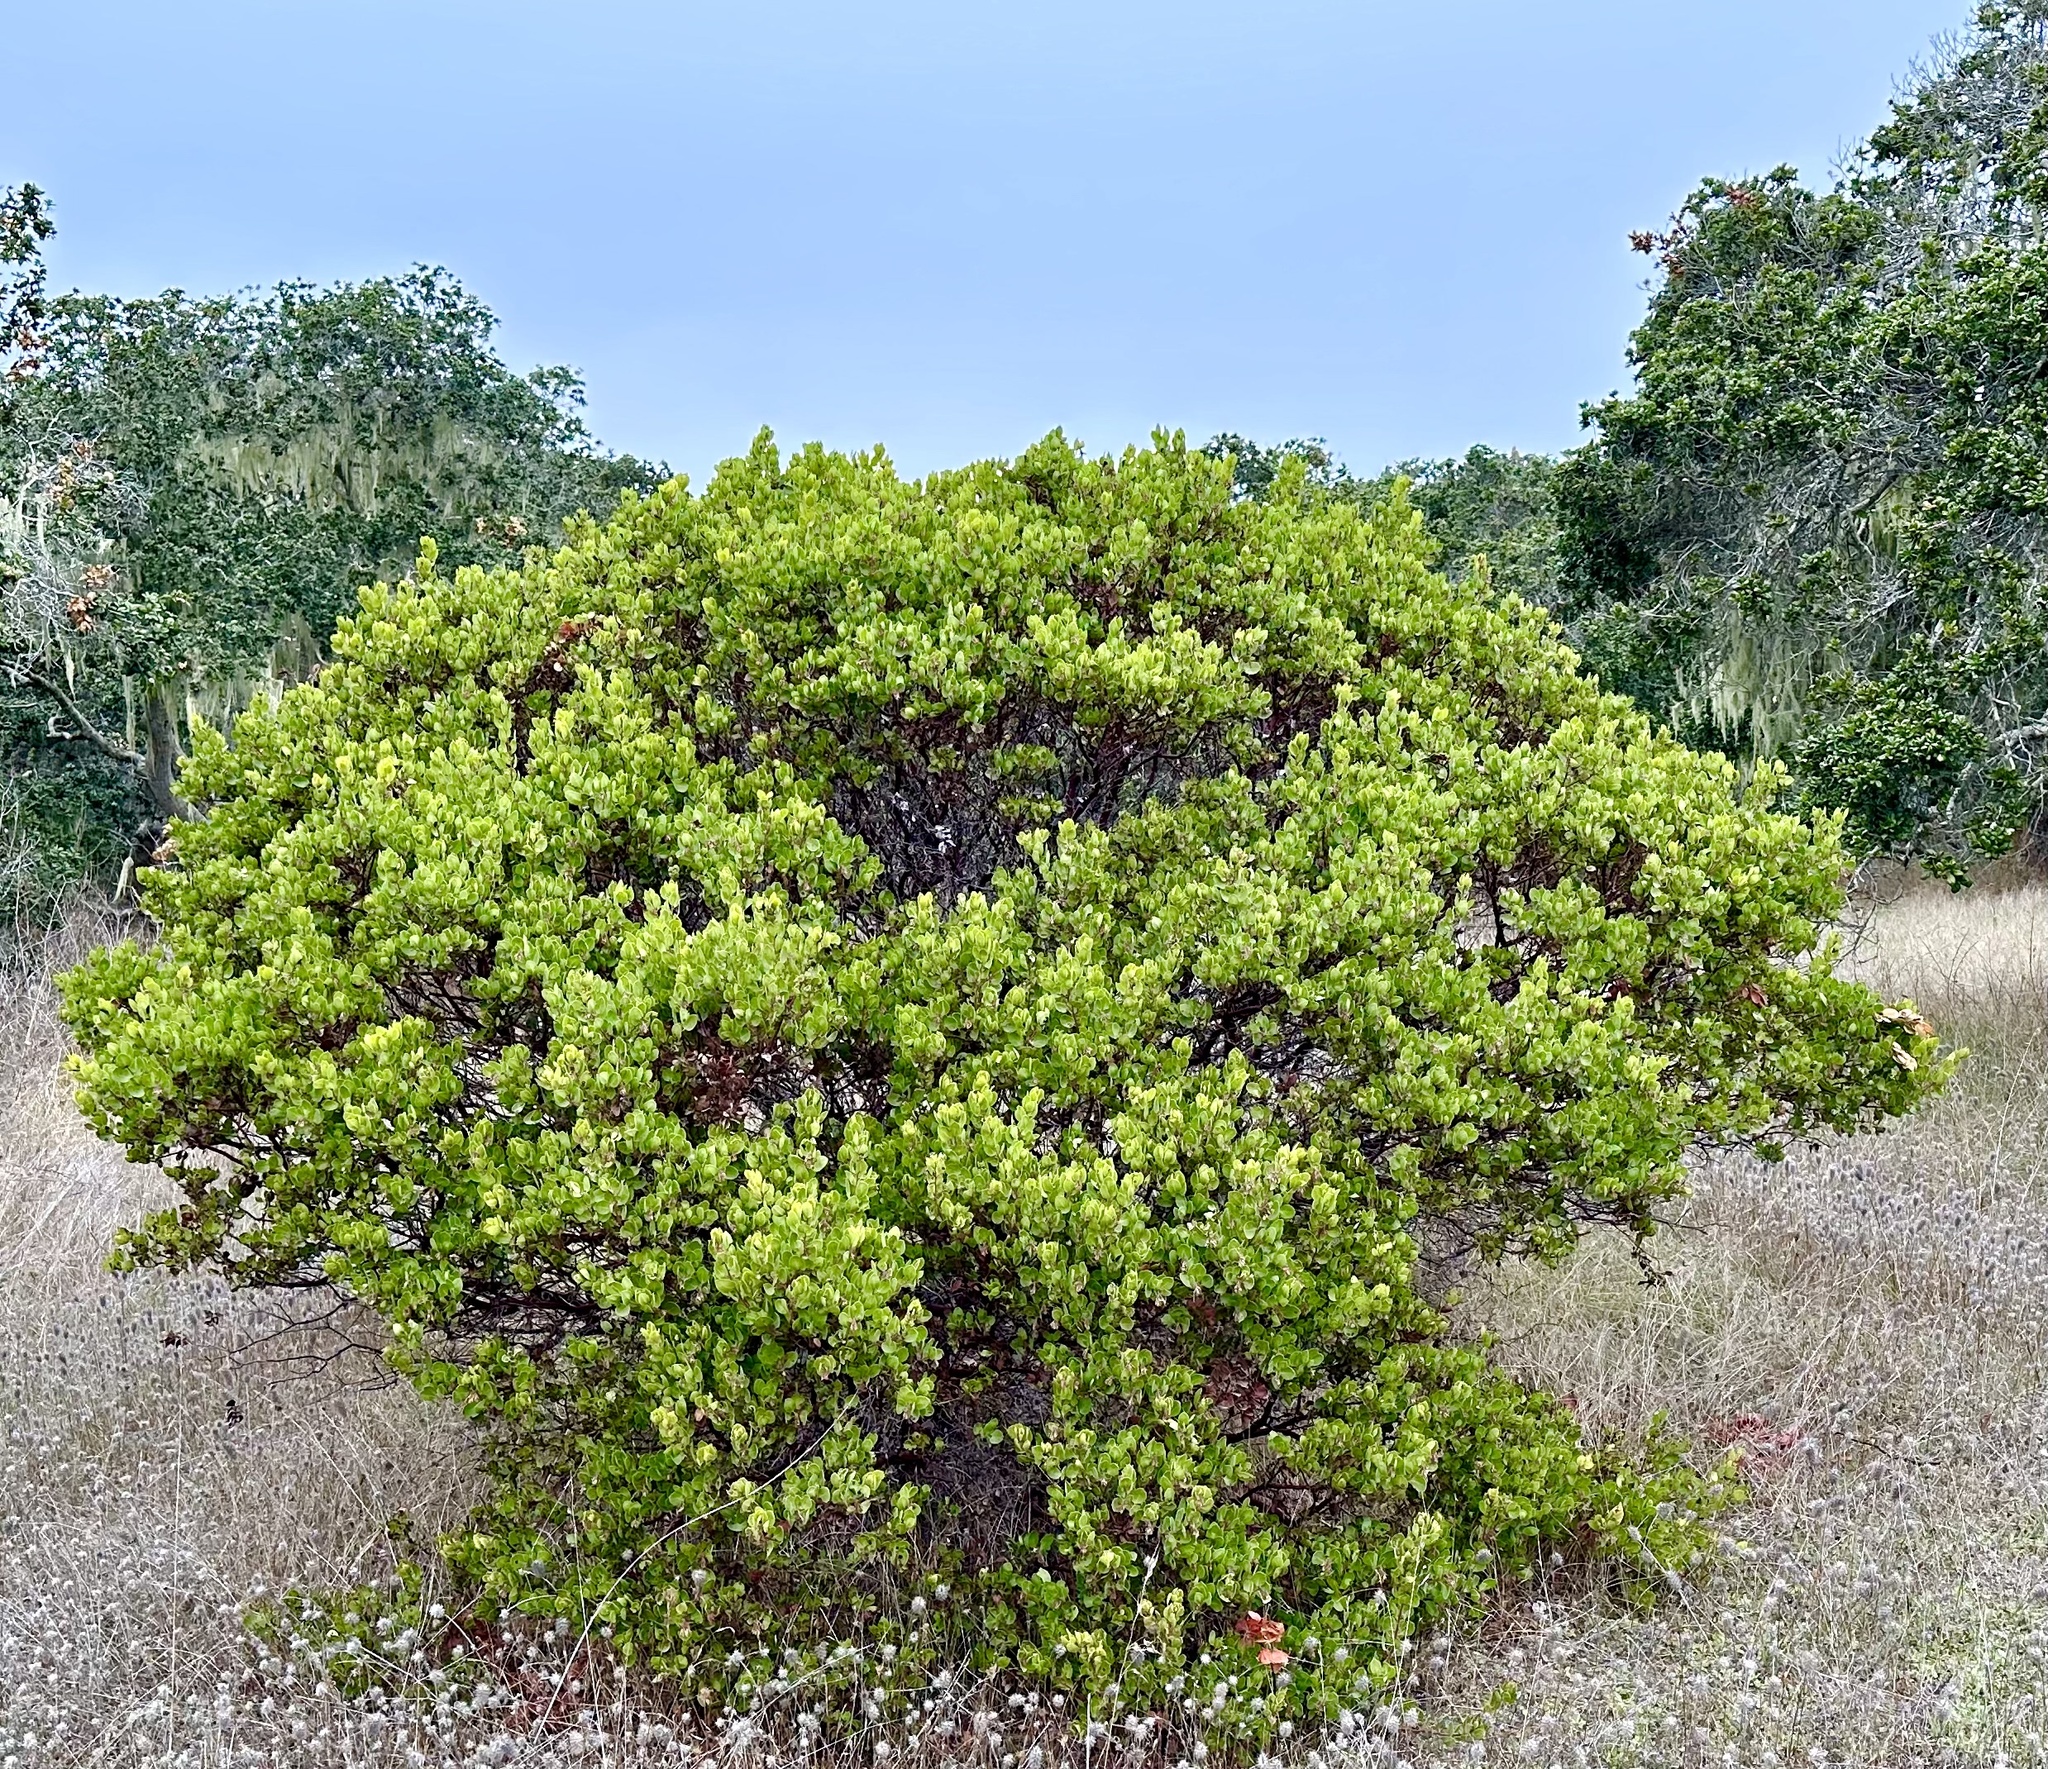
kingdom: Plantae
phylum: Tracheophyta
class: Magnoliopsida
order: Ericales
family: Ericaceae
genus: Arctostaphylos
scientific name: Arctostaphylos montereyensis
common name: Monterey manzanita
